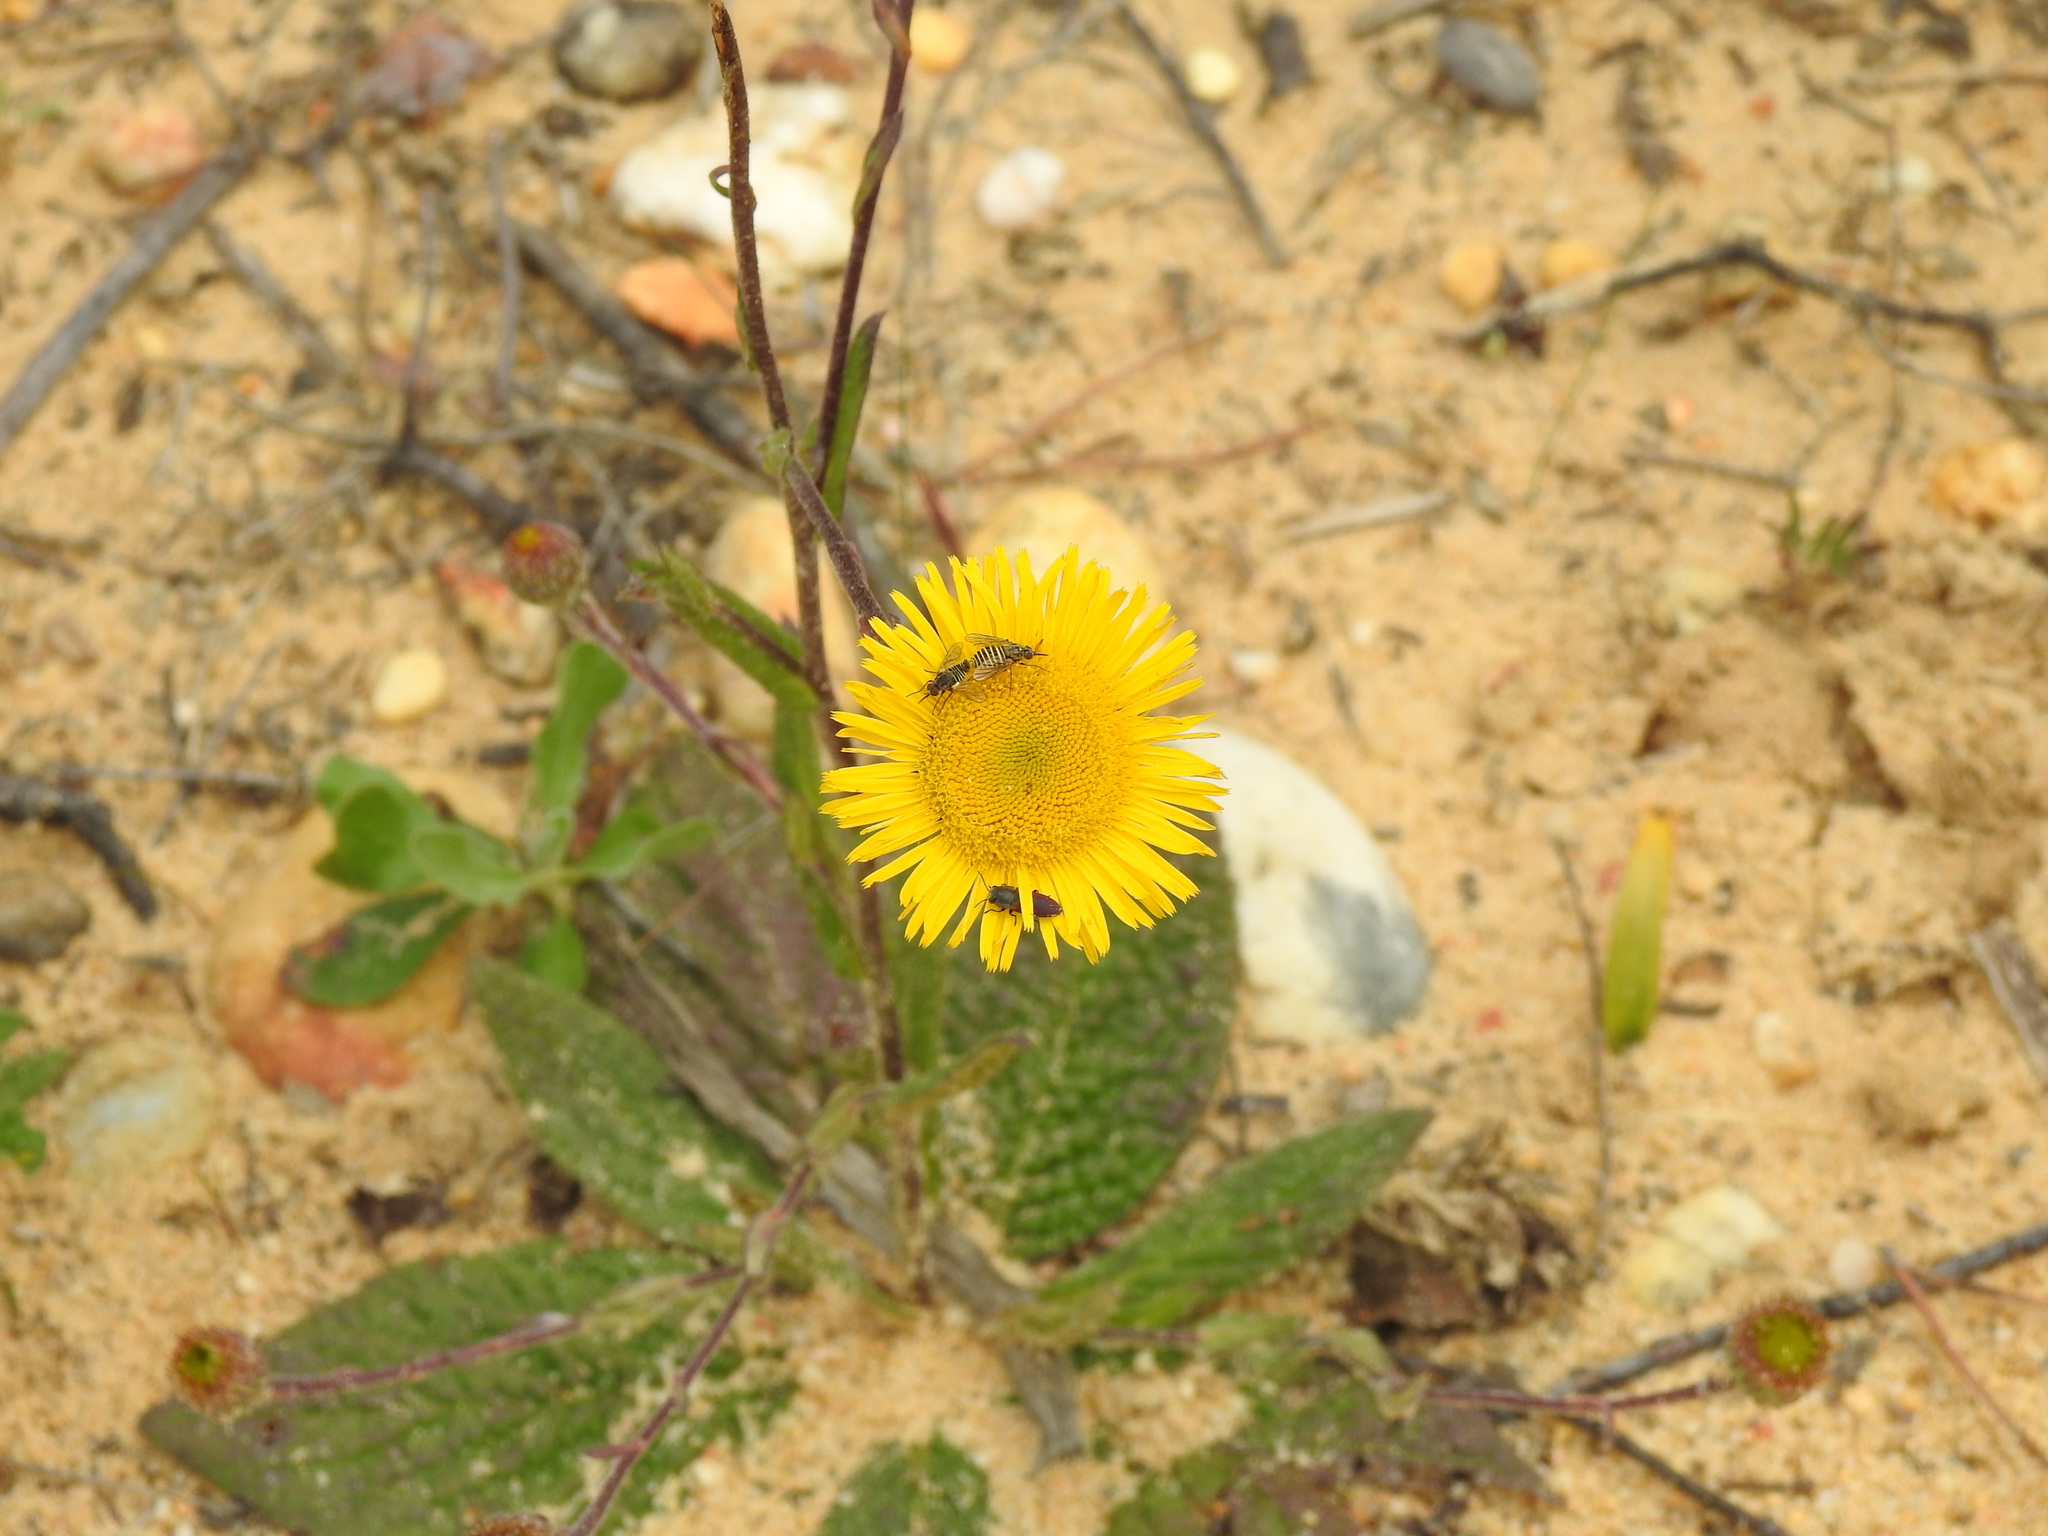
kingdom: Plantae
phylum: Tracheophyta
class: Magnoliopsida
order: Asterales
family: Asteraceae
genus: Pulicaria
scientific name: Pulicaria odora
